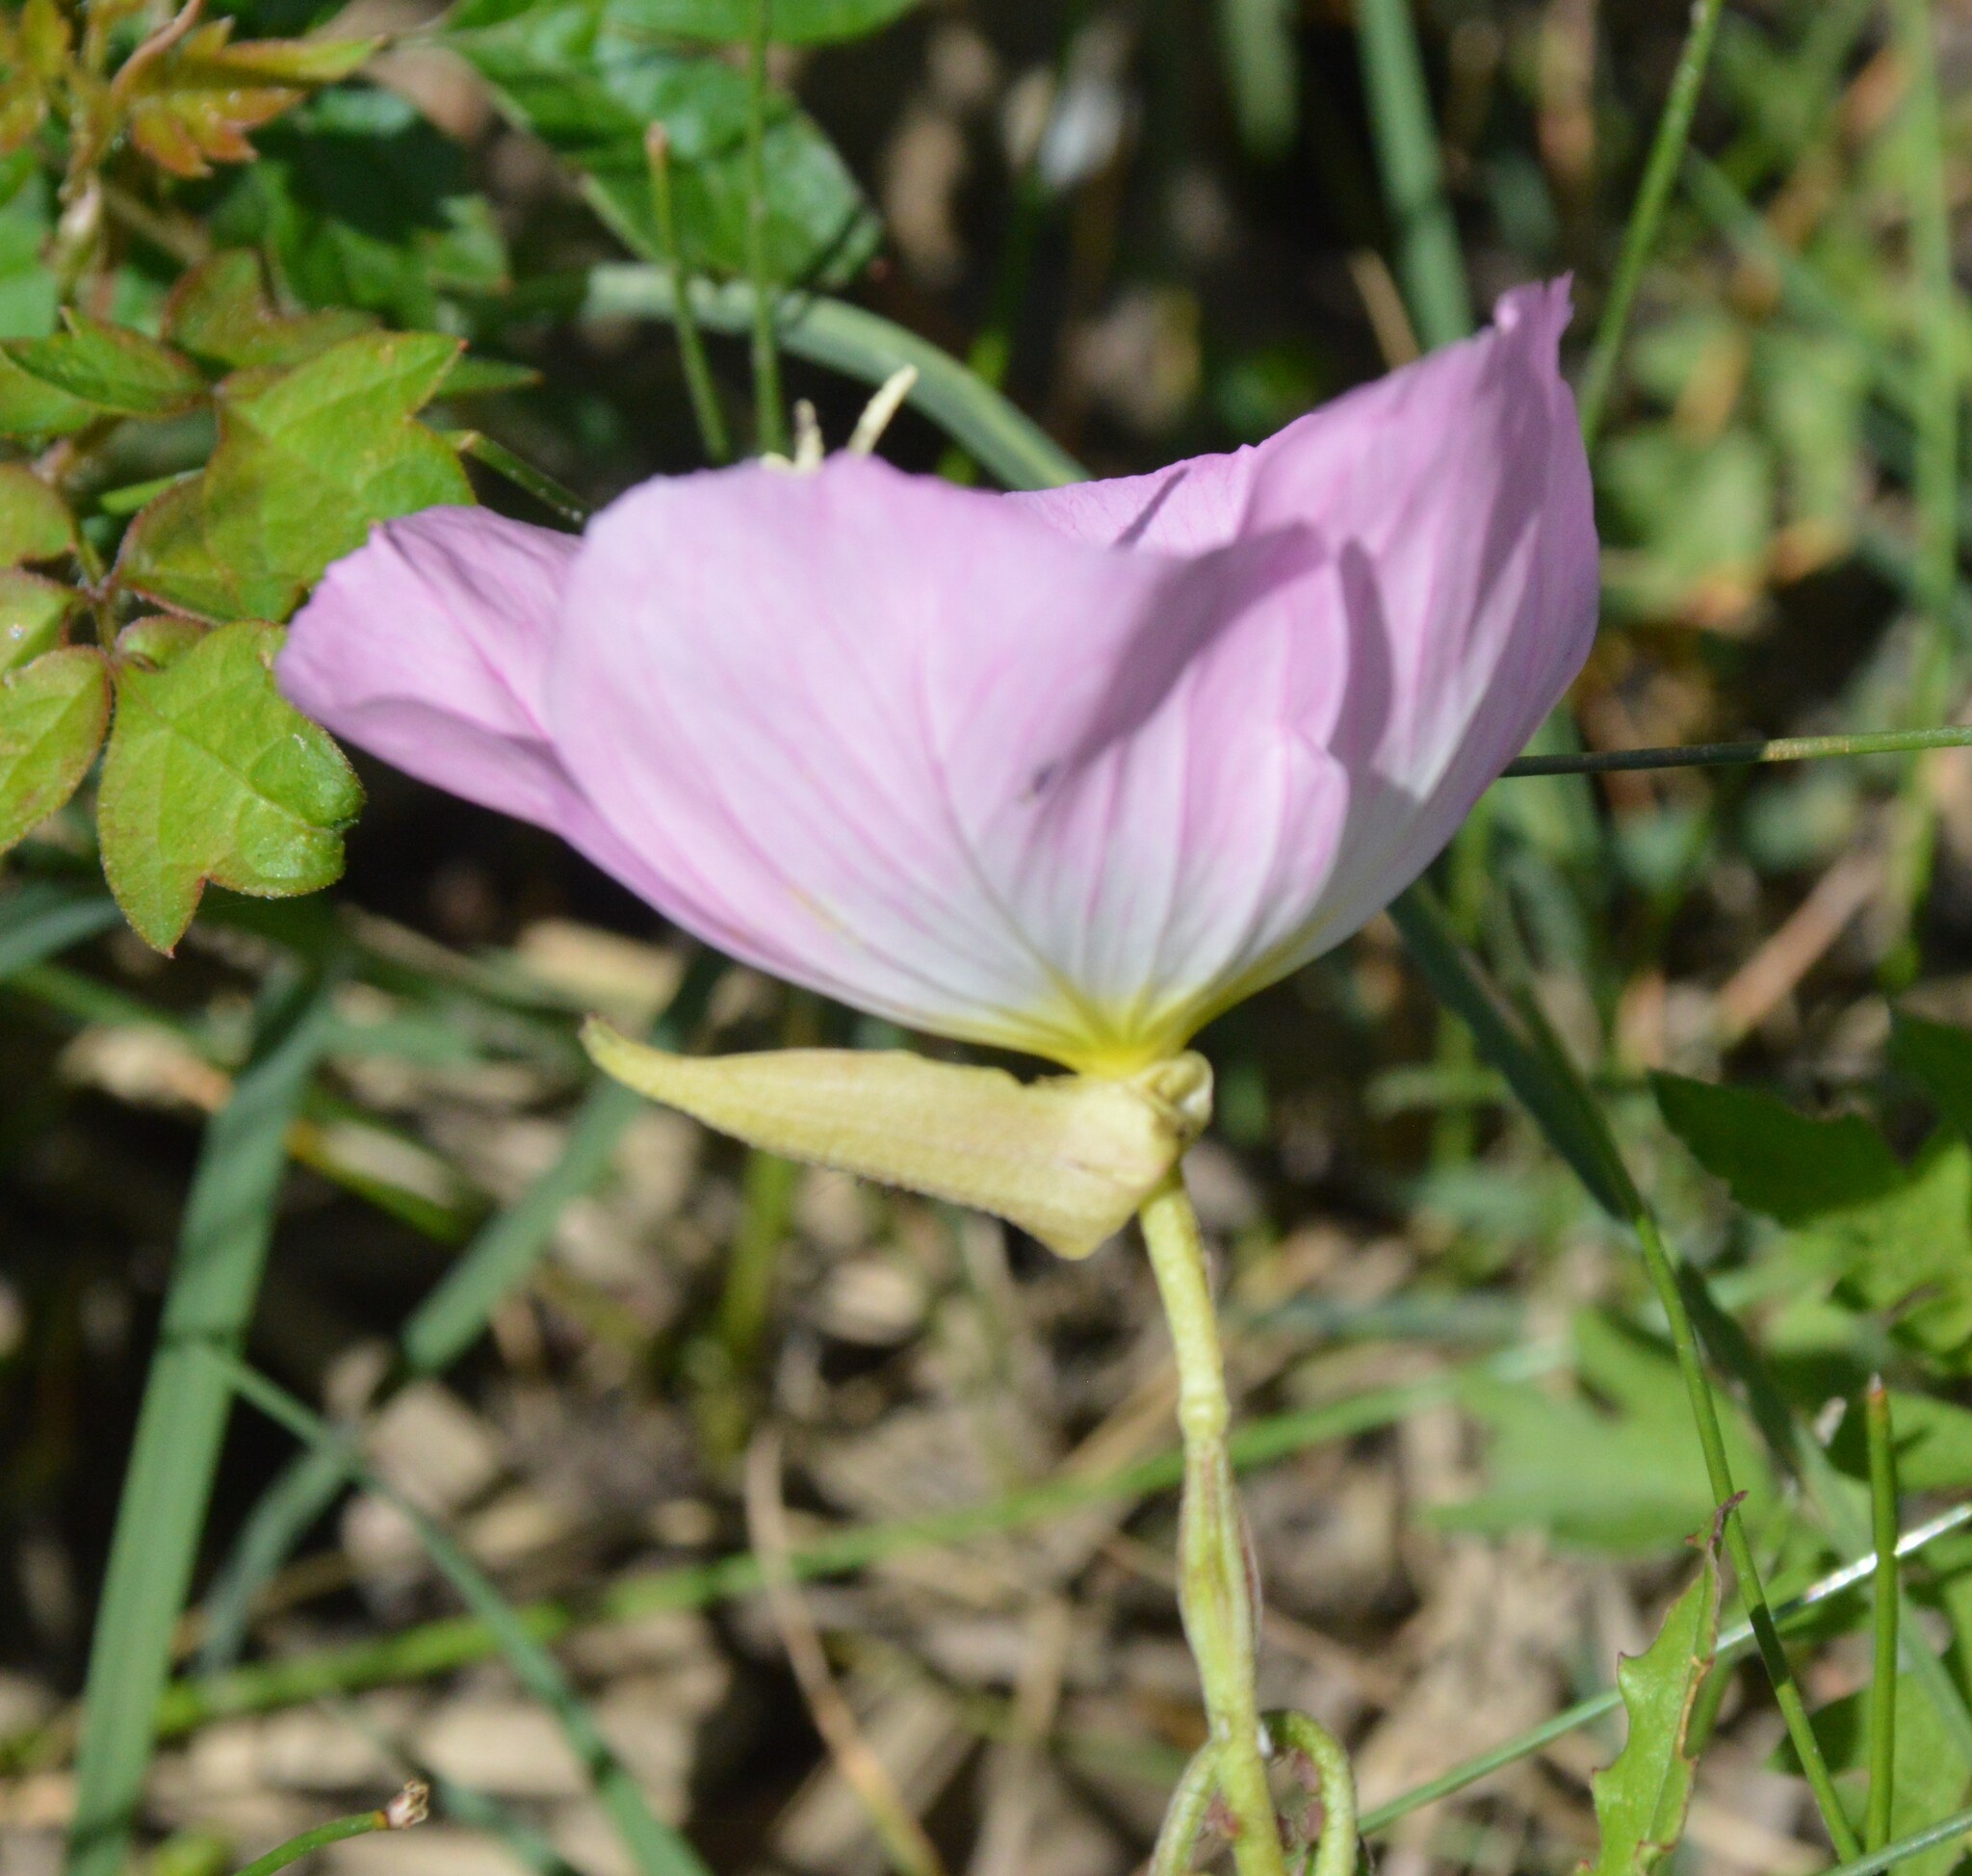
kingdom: Plantae
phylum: Tracheophyta
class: Magnoliopsida
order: Myrtales
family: Onagraceae
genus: Oenothera
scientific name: Oenothera speciosa
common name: White evening-primrose
